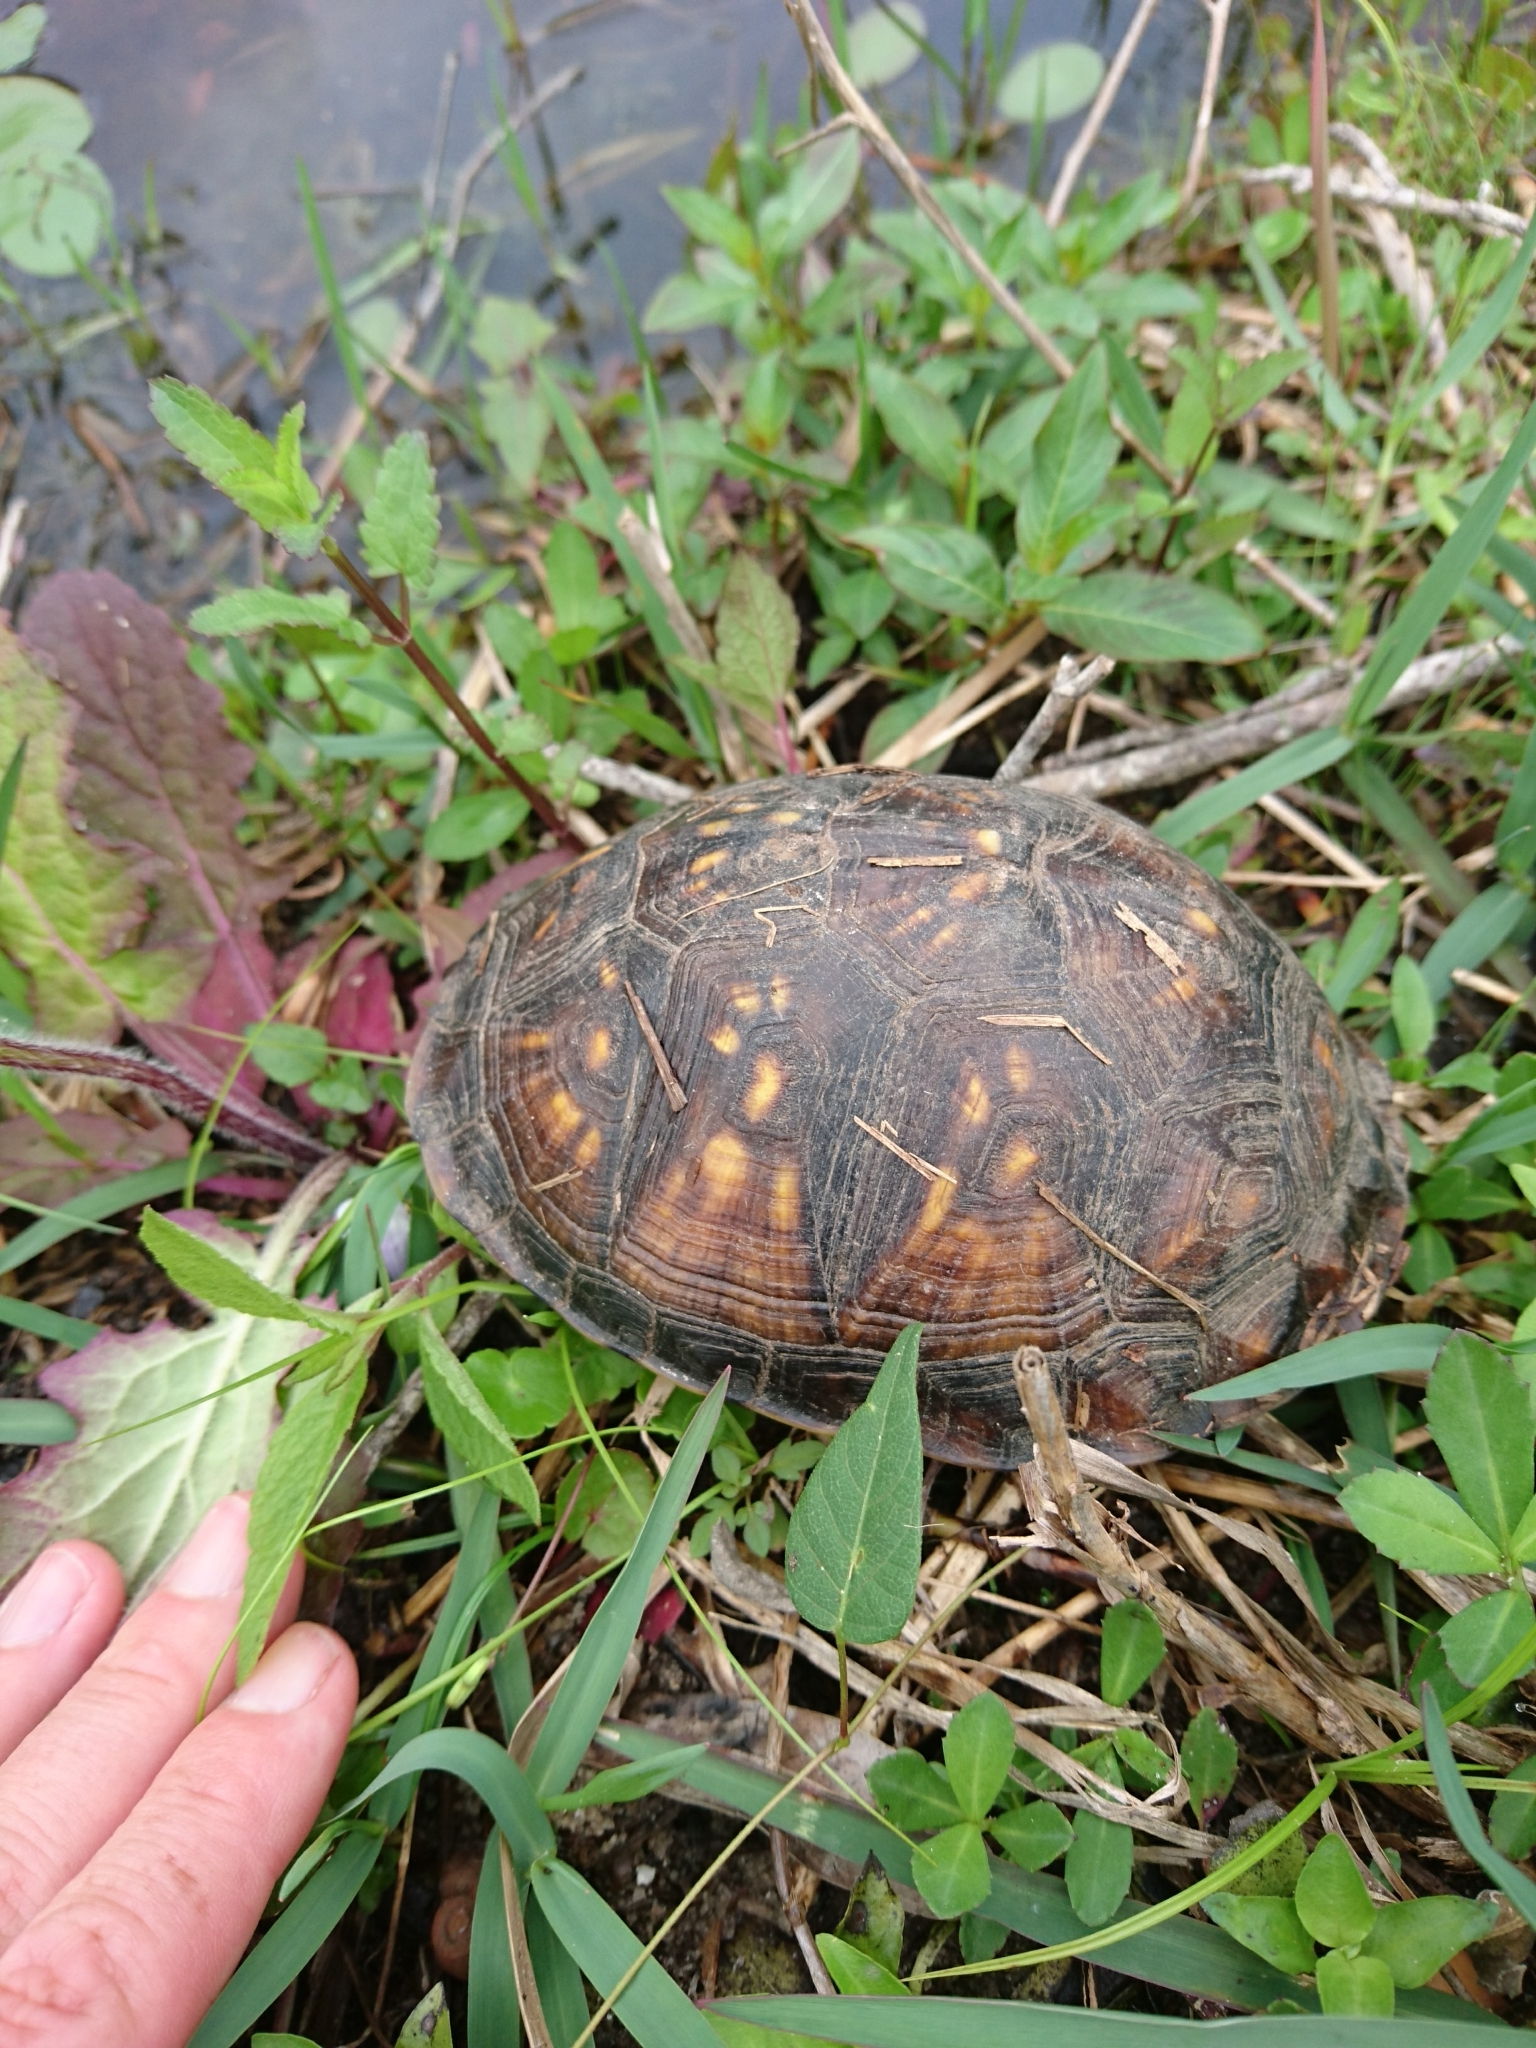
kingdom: Animalia
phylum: Chordata
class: Testudines
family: Emydidae
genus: Terrapene
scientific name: Terrapene carolina
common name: Common box turtle
